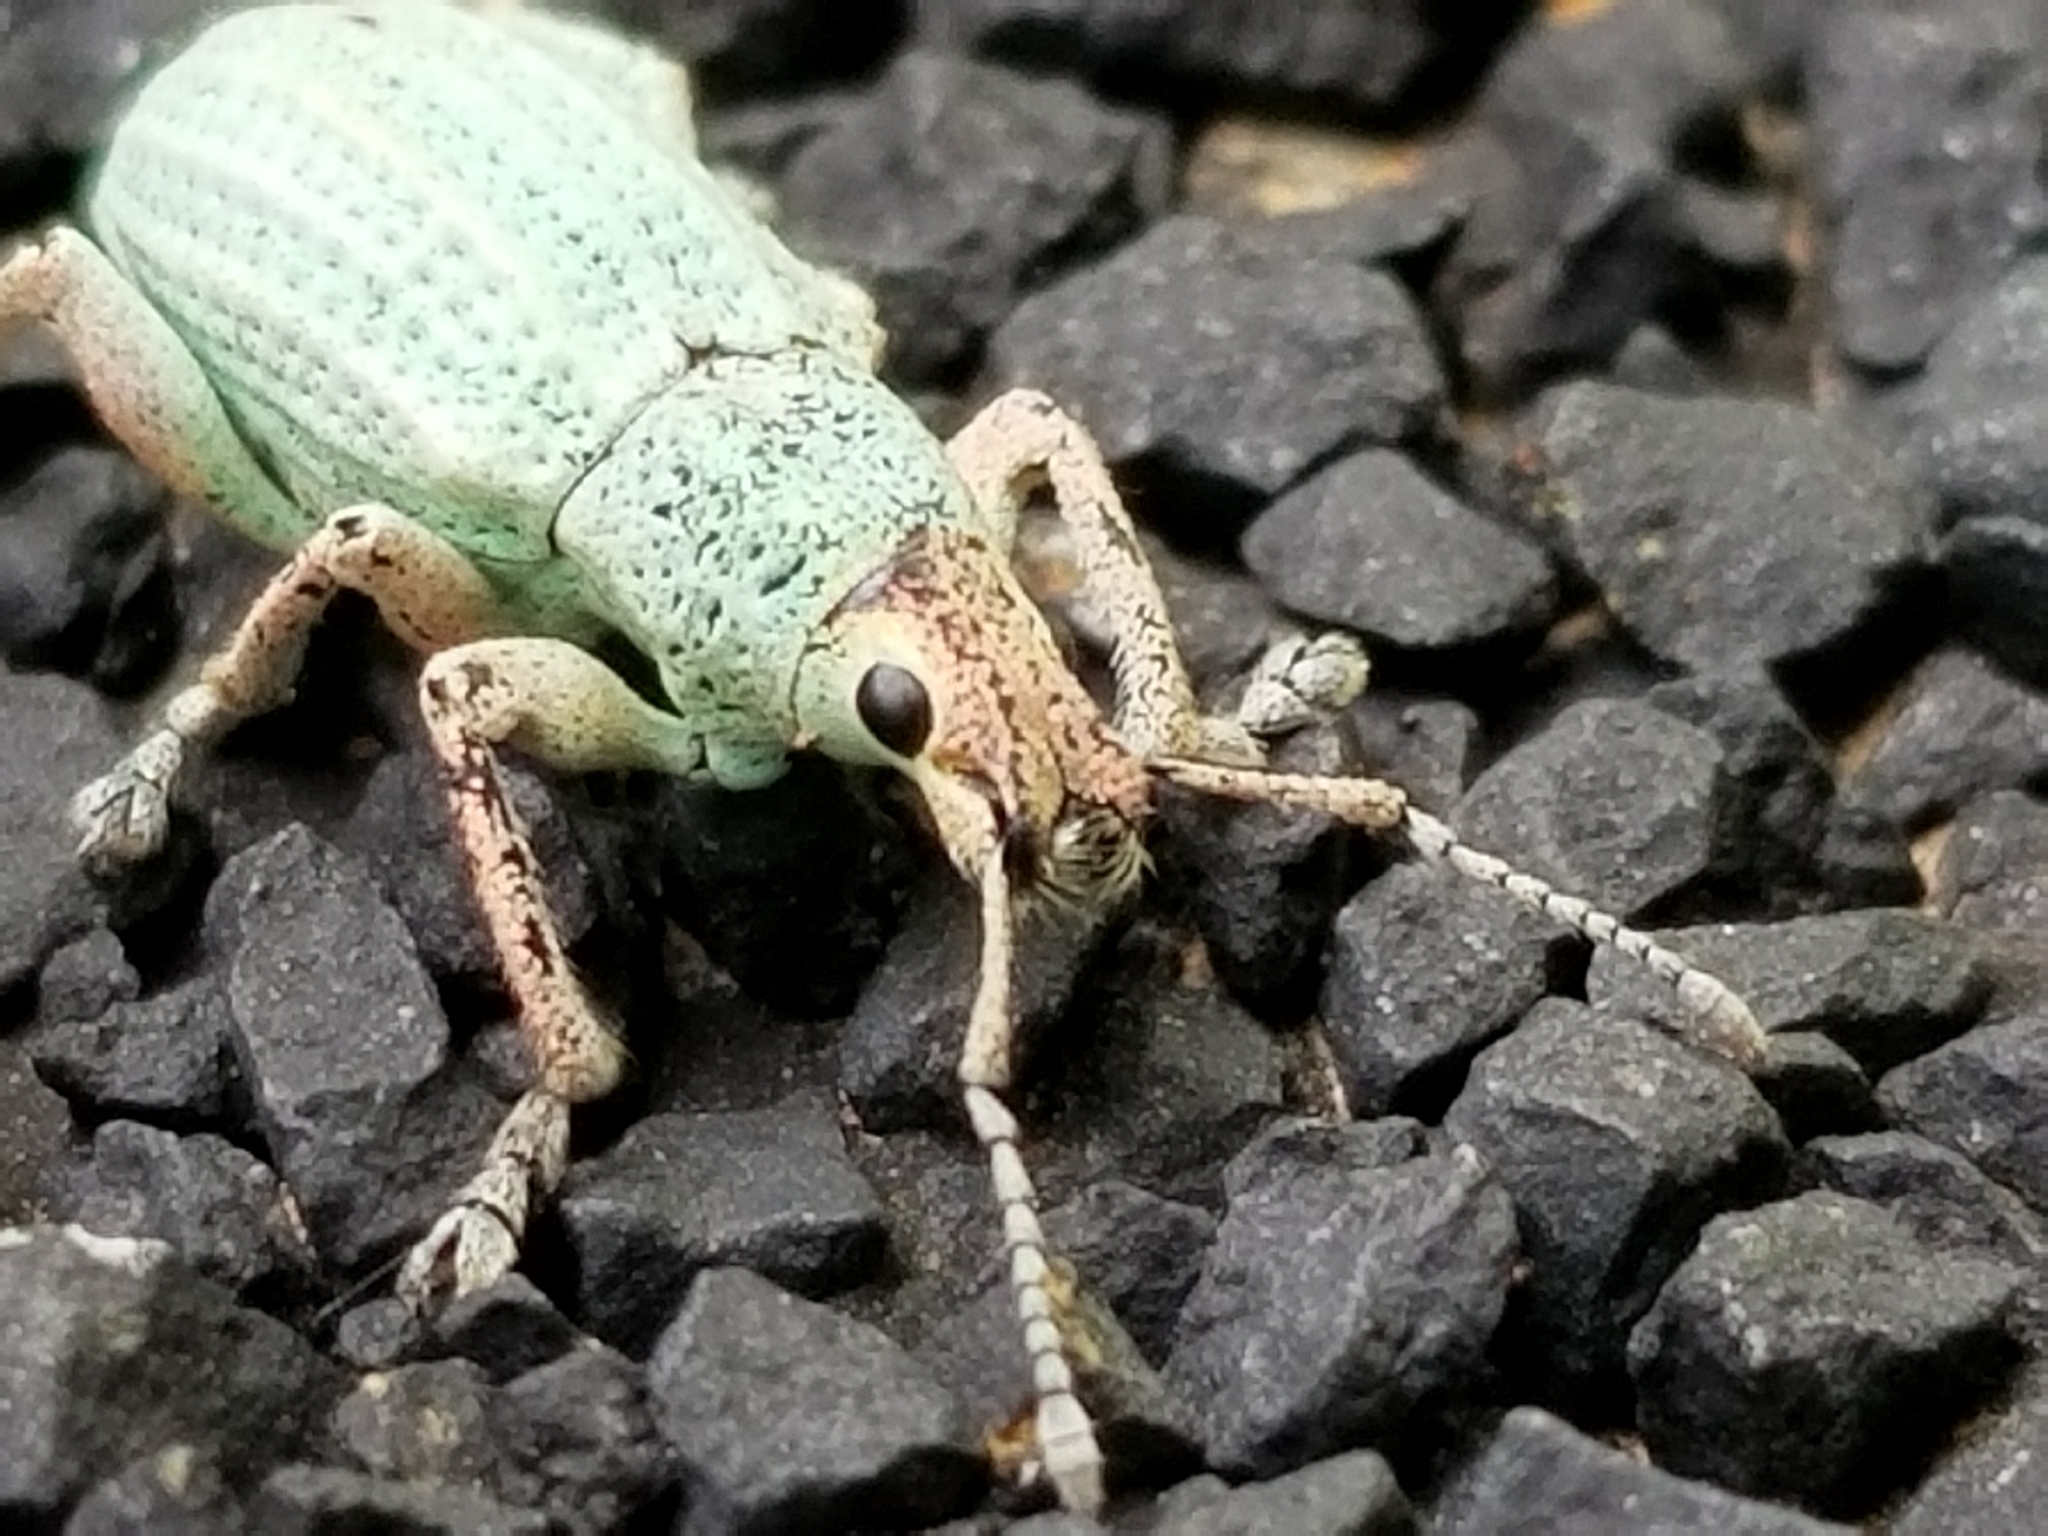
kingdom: Animalia
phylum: Arthropoda
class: Insecta
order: Coleoptera
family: Curculionidae
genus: Compsus
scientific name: Compsus auricephalus
